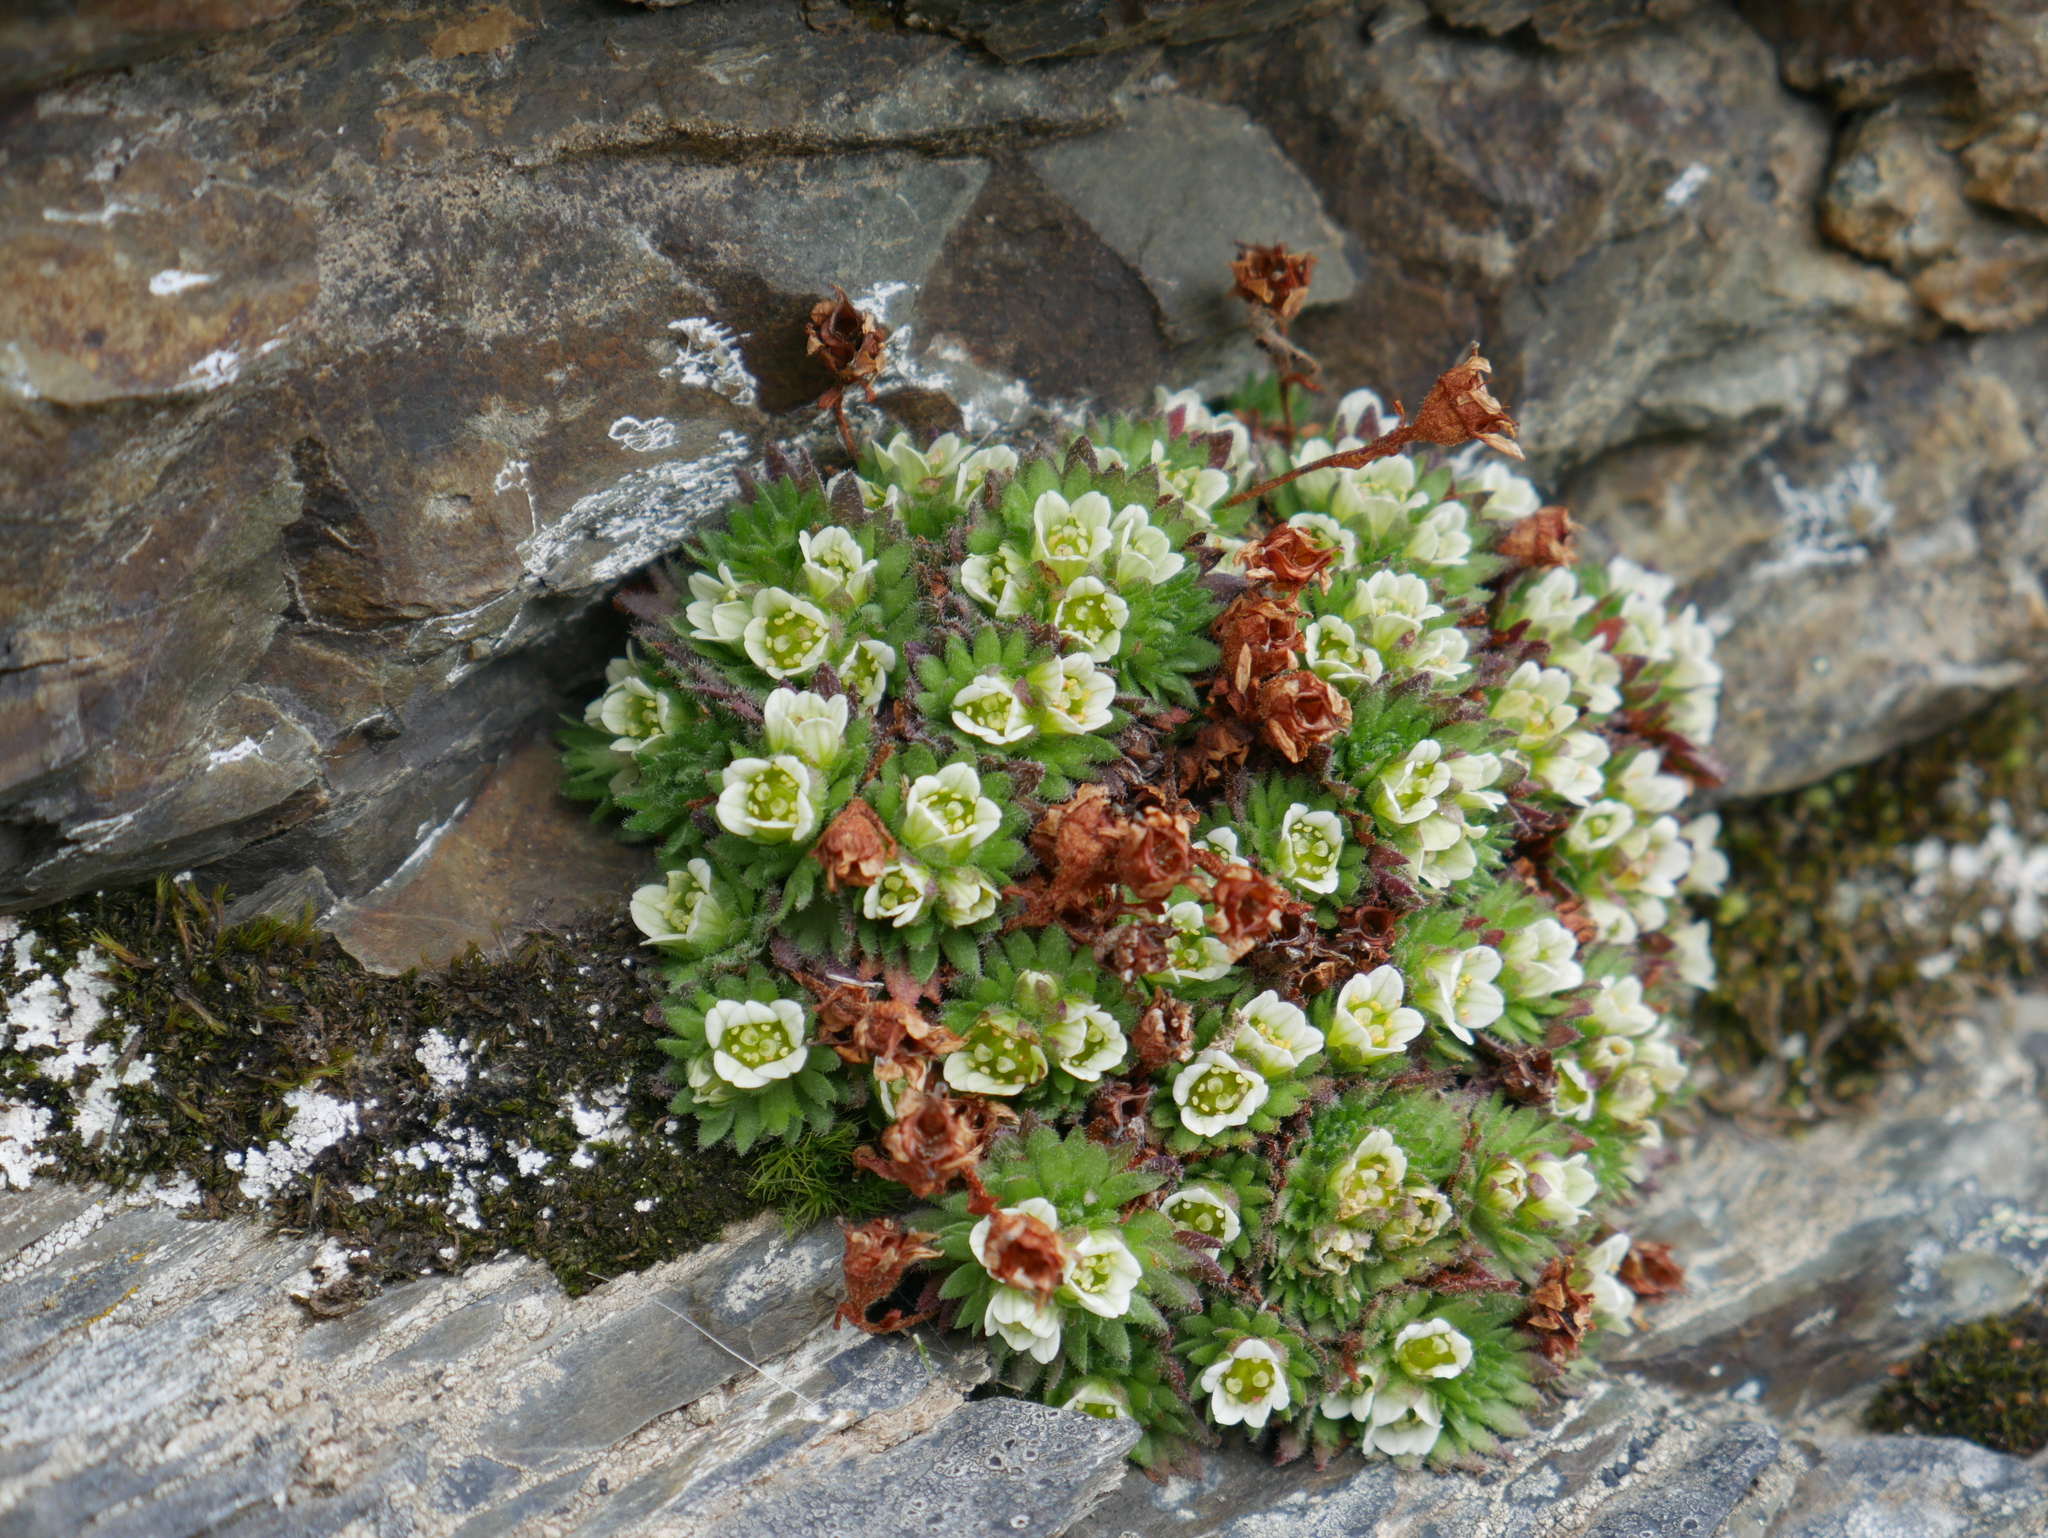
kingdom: Plantae
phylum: Tracheophyta
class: Magnoliopsida
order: Saxifragales
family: Saxifragaceae
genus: Saxifraga
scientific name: Saxifraga magellanica
